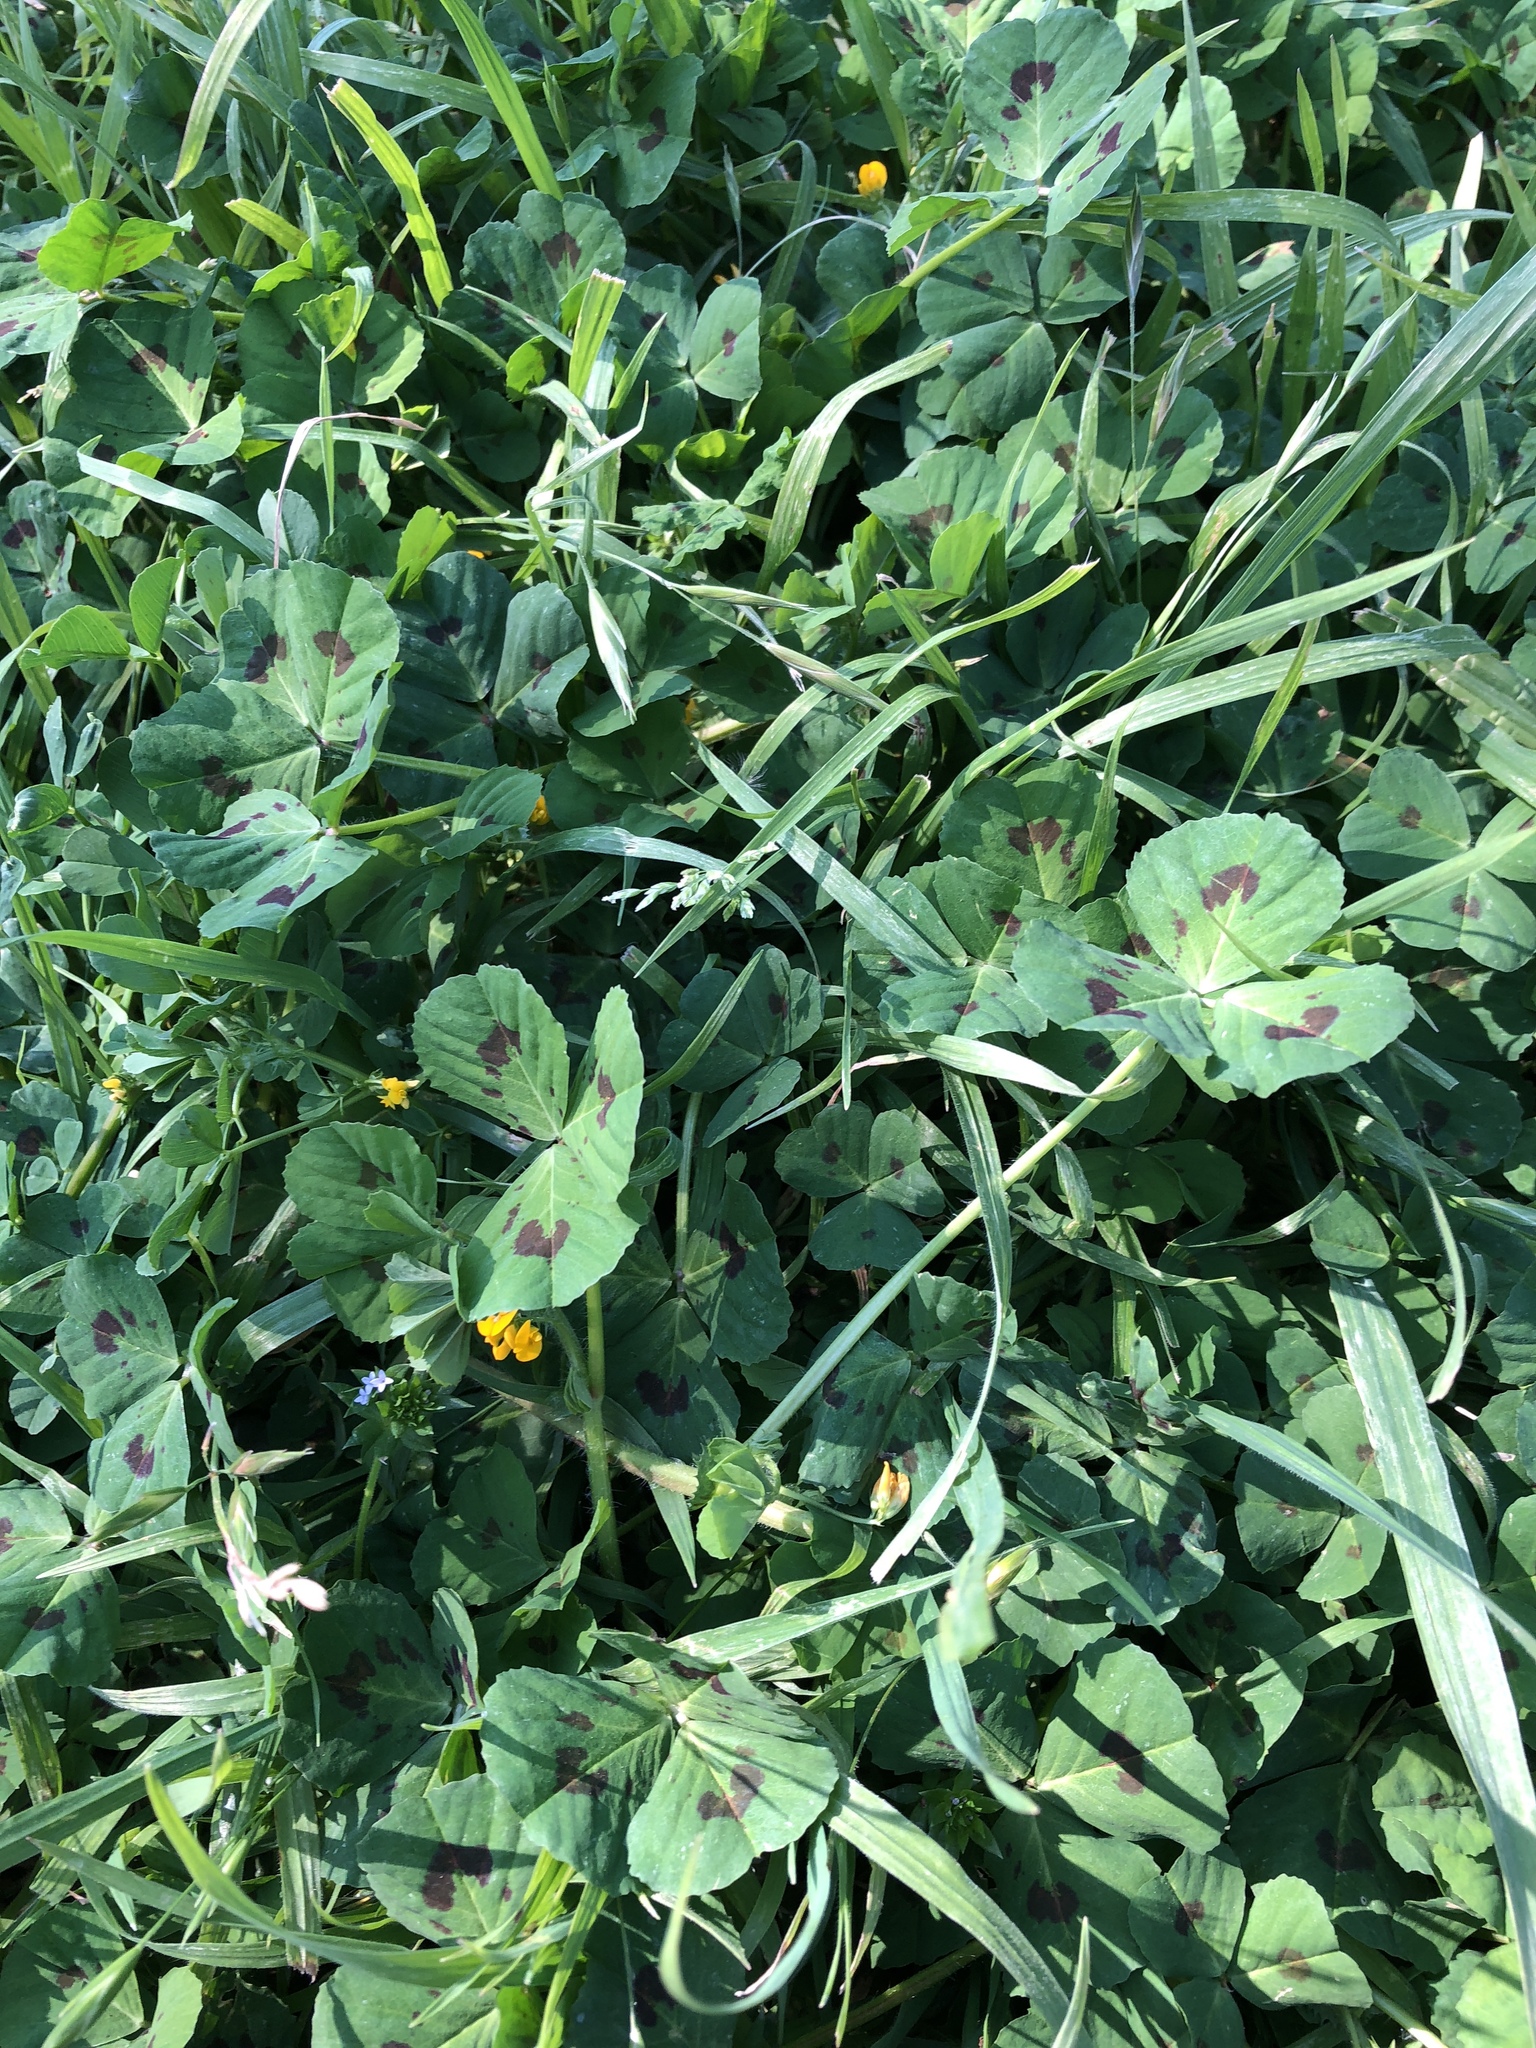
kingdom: Plantae
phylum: Tracheophyta
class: Magnoliopsida
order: Fabales
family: Fabaceae
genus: Medicago
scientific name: Medicago arabica
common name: Spotted medick
